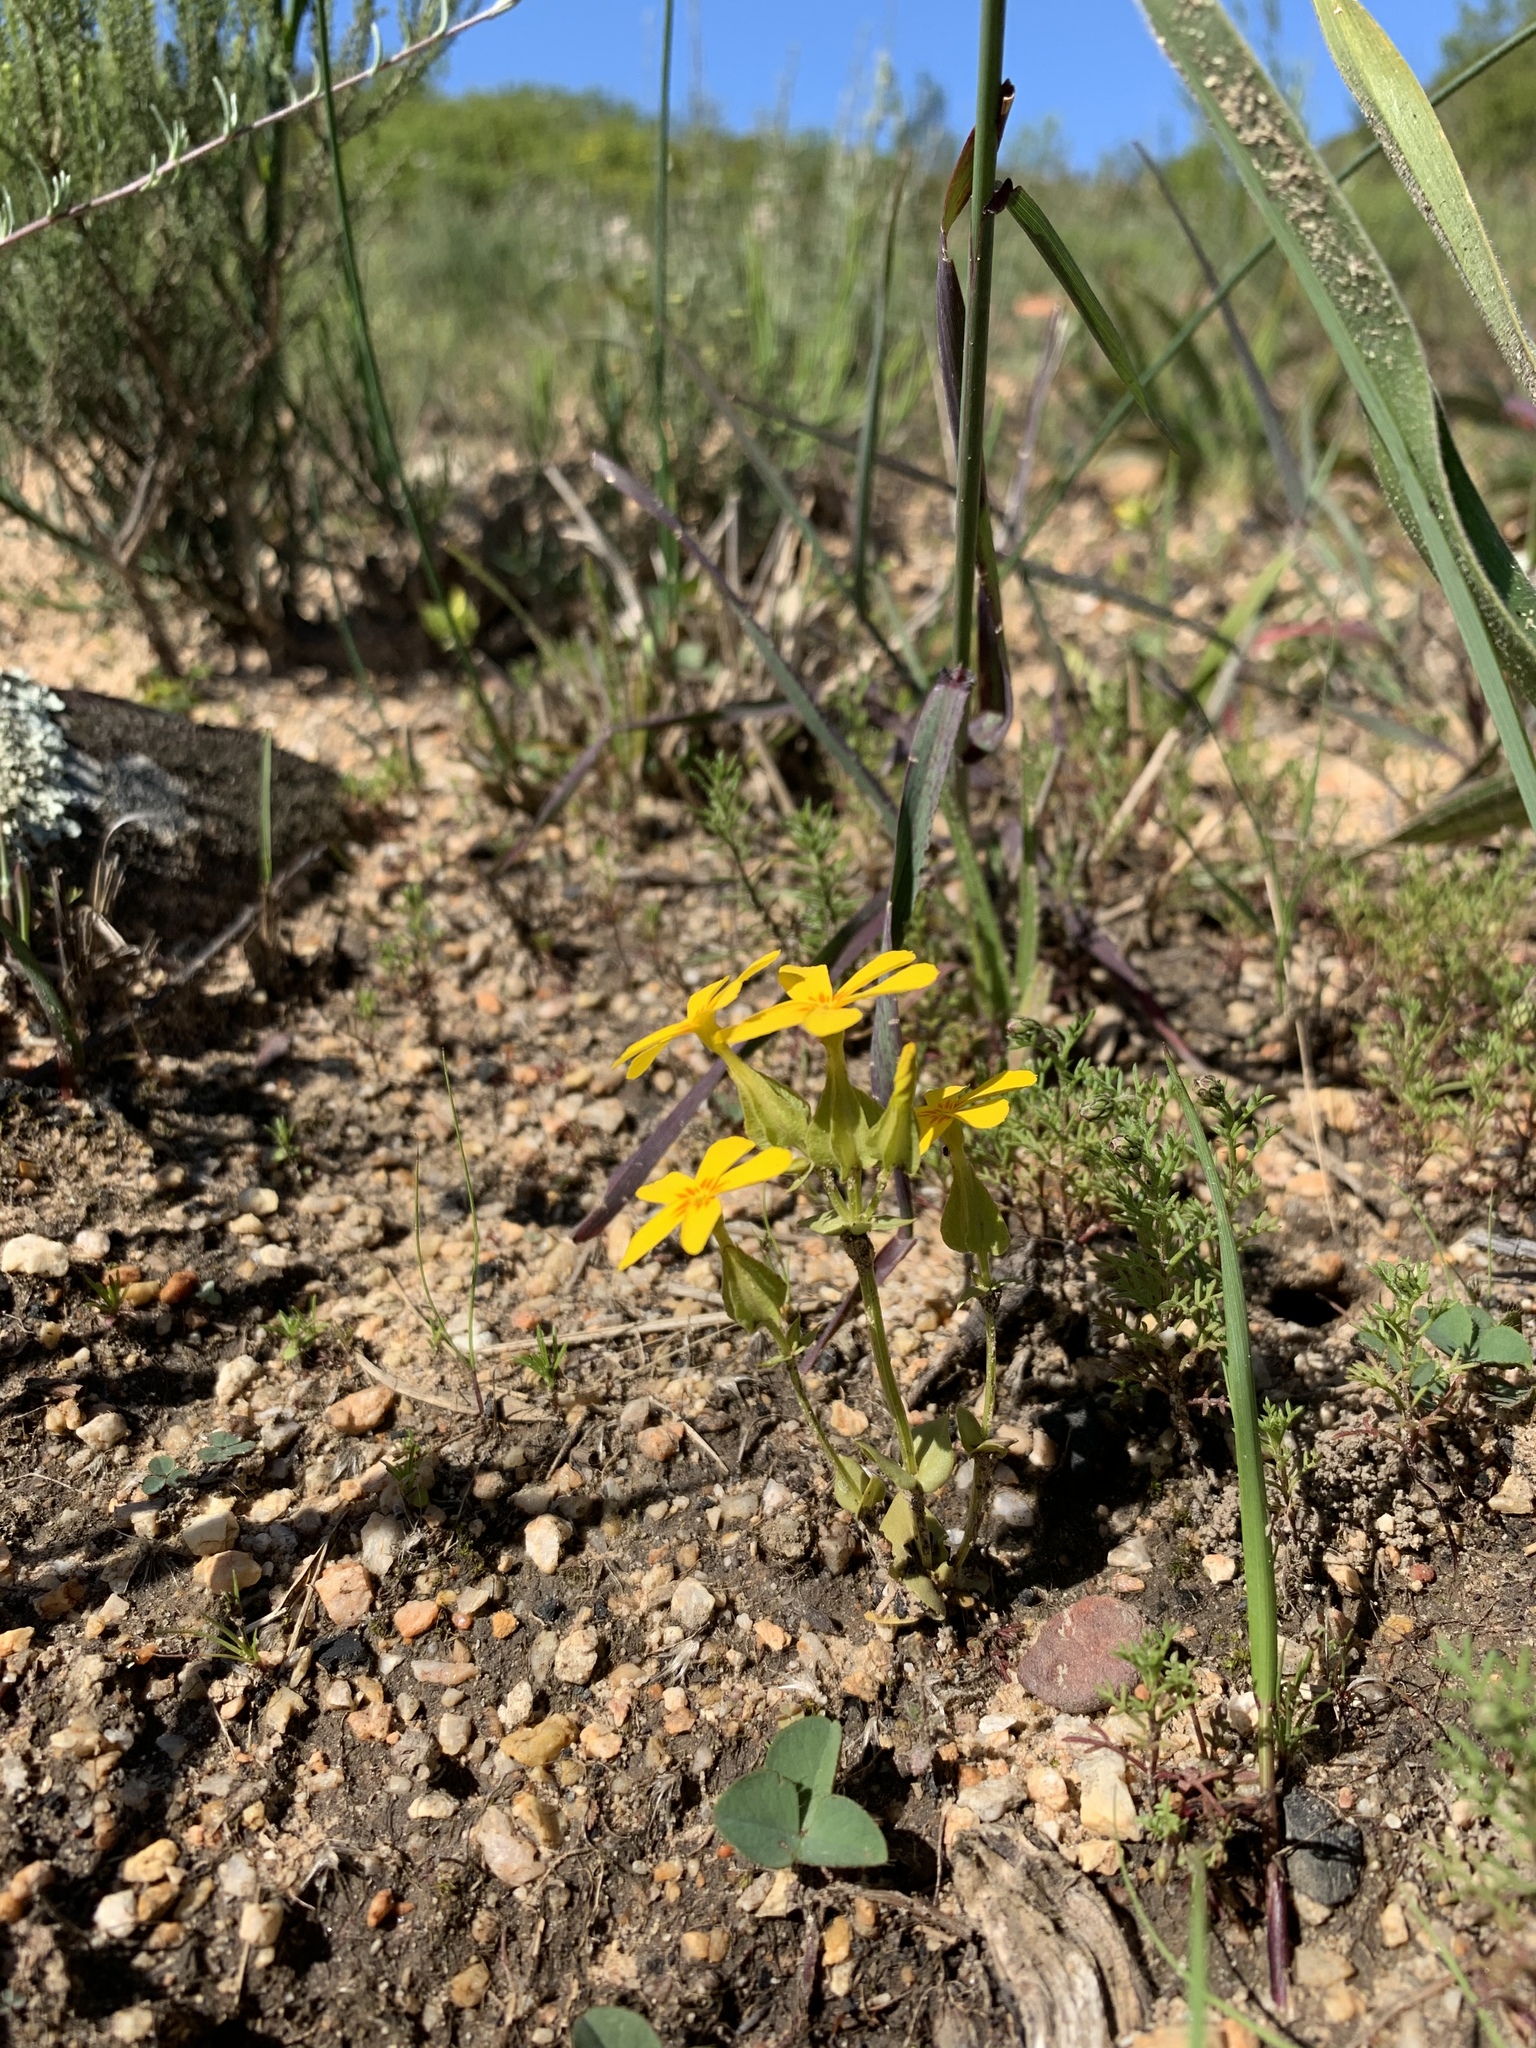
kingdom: Plantae
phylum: Tracheophyta
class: Magnoliopsida
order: Gentianales
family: Gentianaceae
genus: Sebaea
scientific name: Sebaea exacoides
